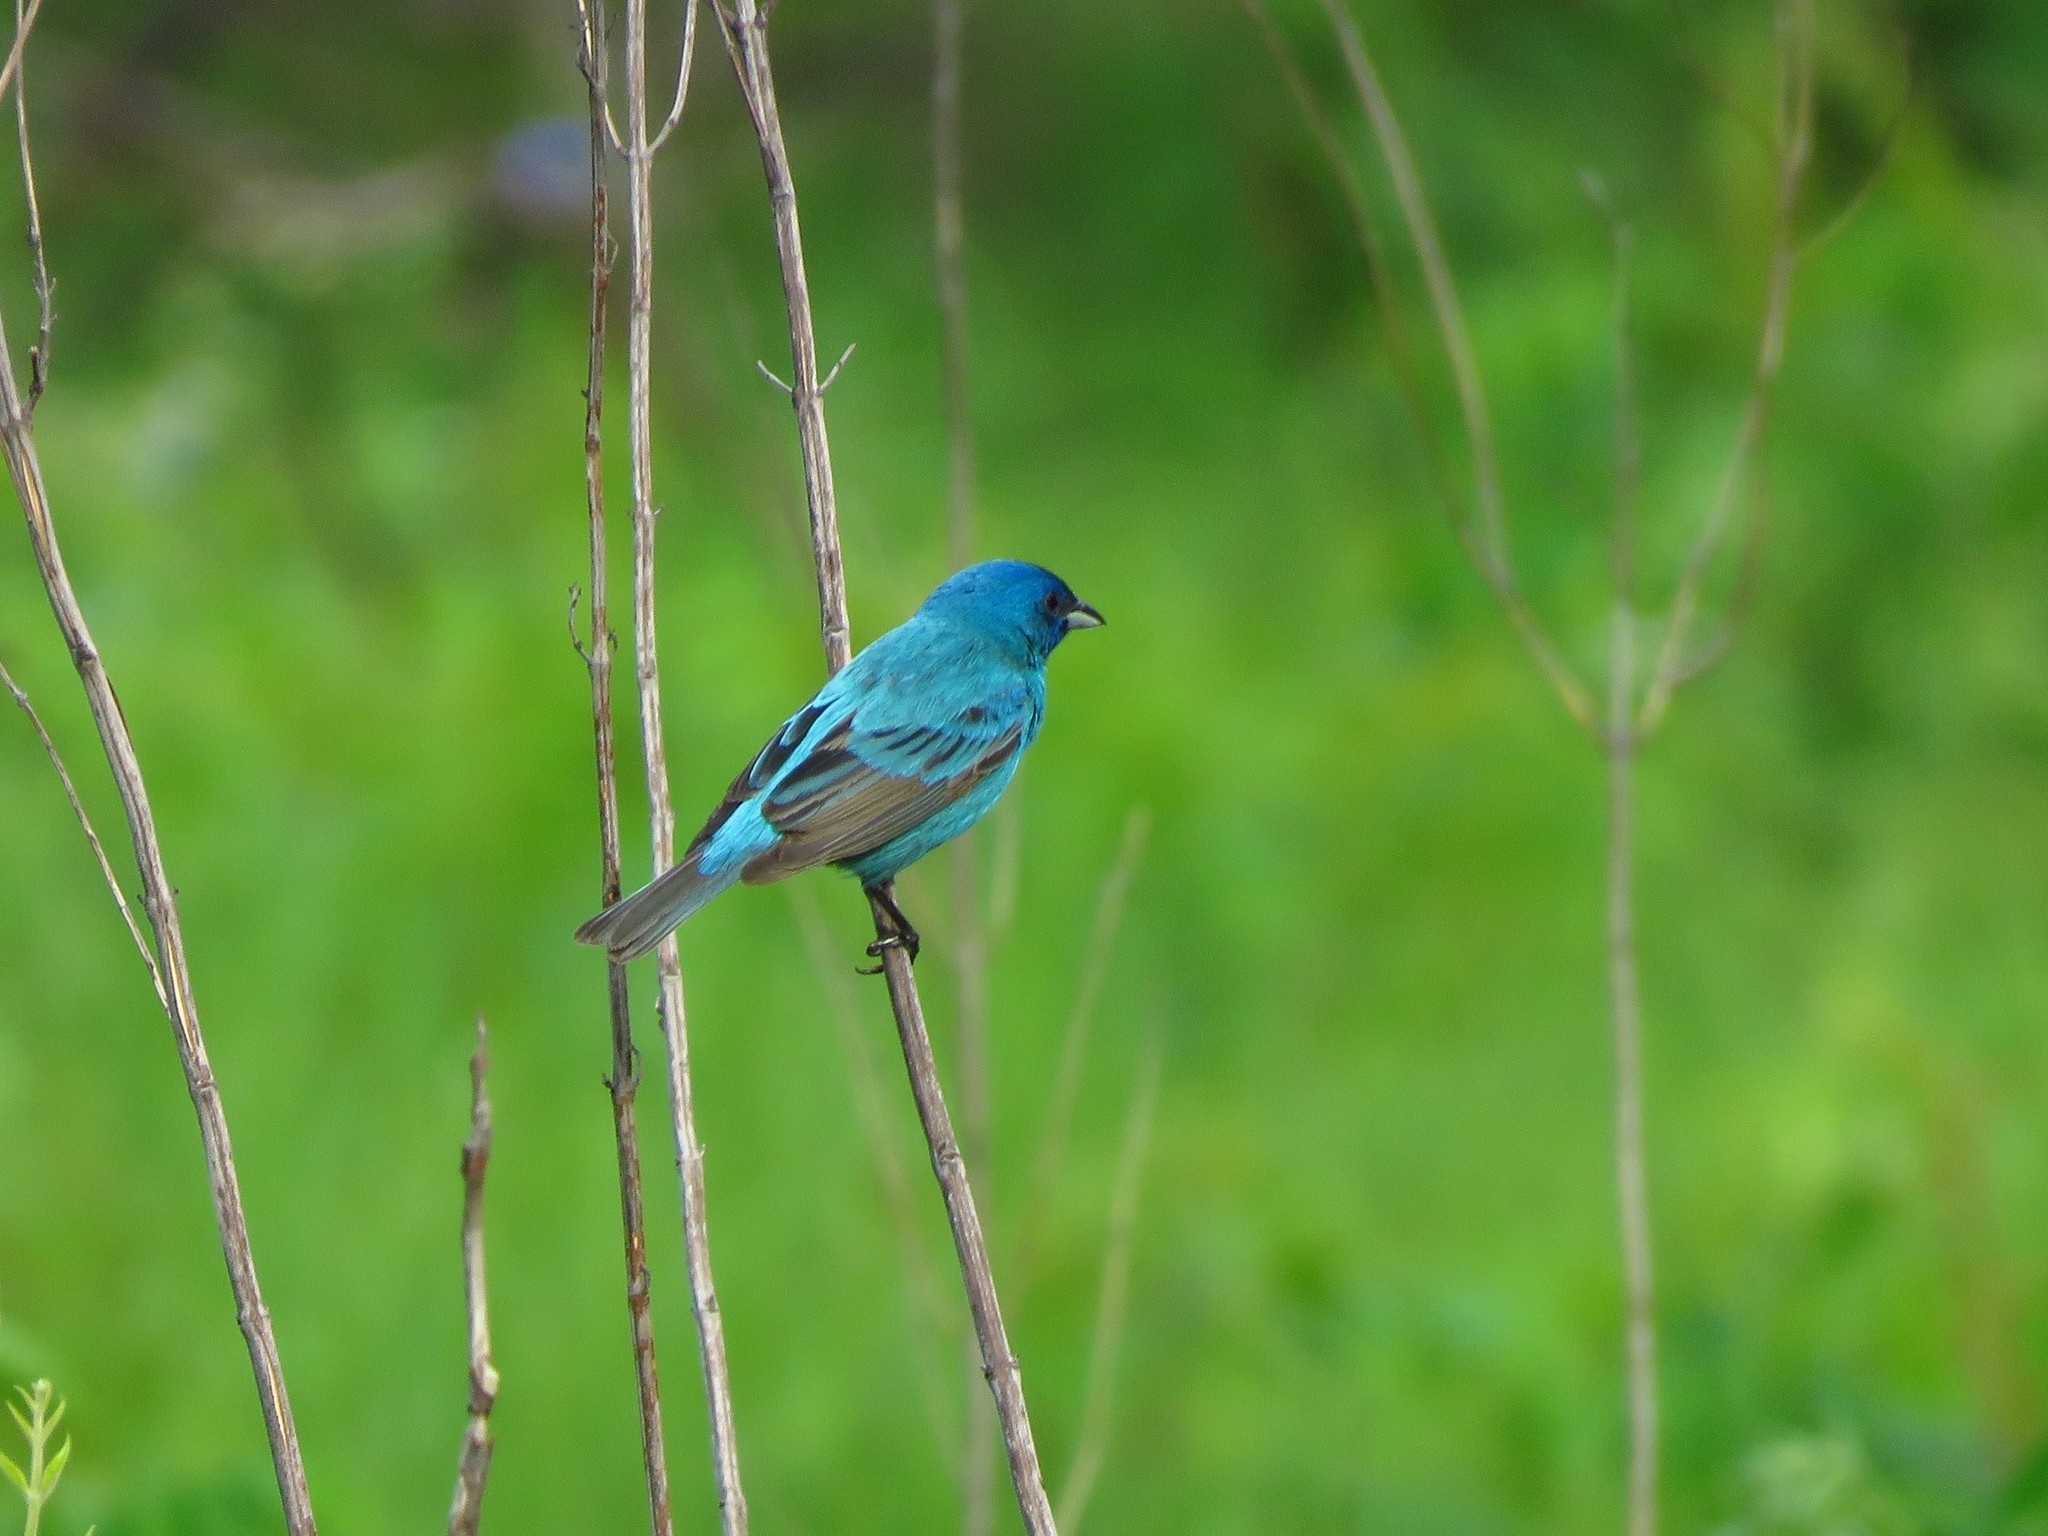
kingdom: Animalia
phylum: Chordata
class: Aves
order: Passeriformes
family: Cardinalidae
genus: Passerina
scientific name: Passerina cyanea
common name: Indigo bunting
